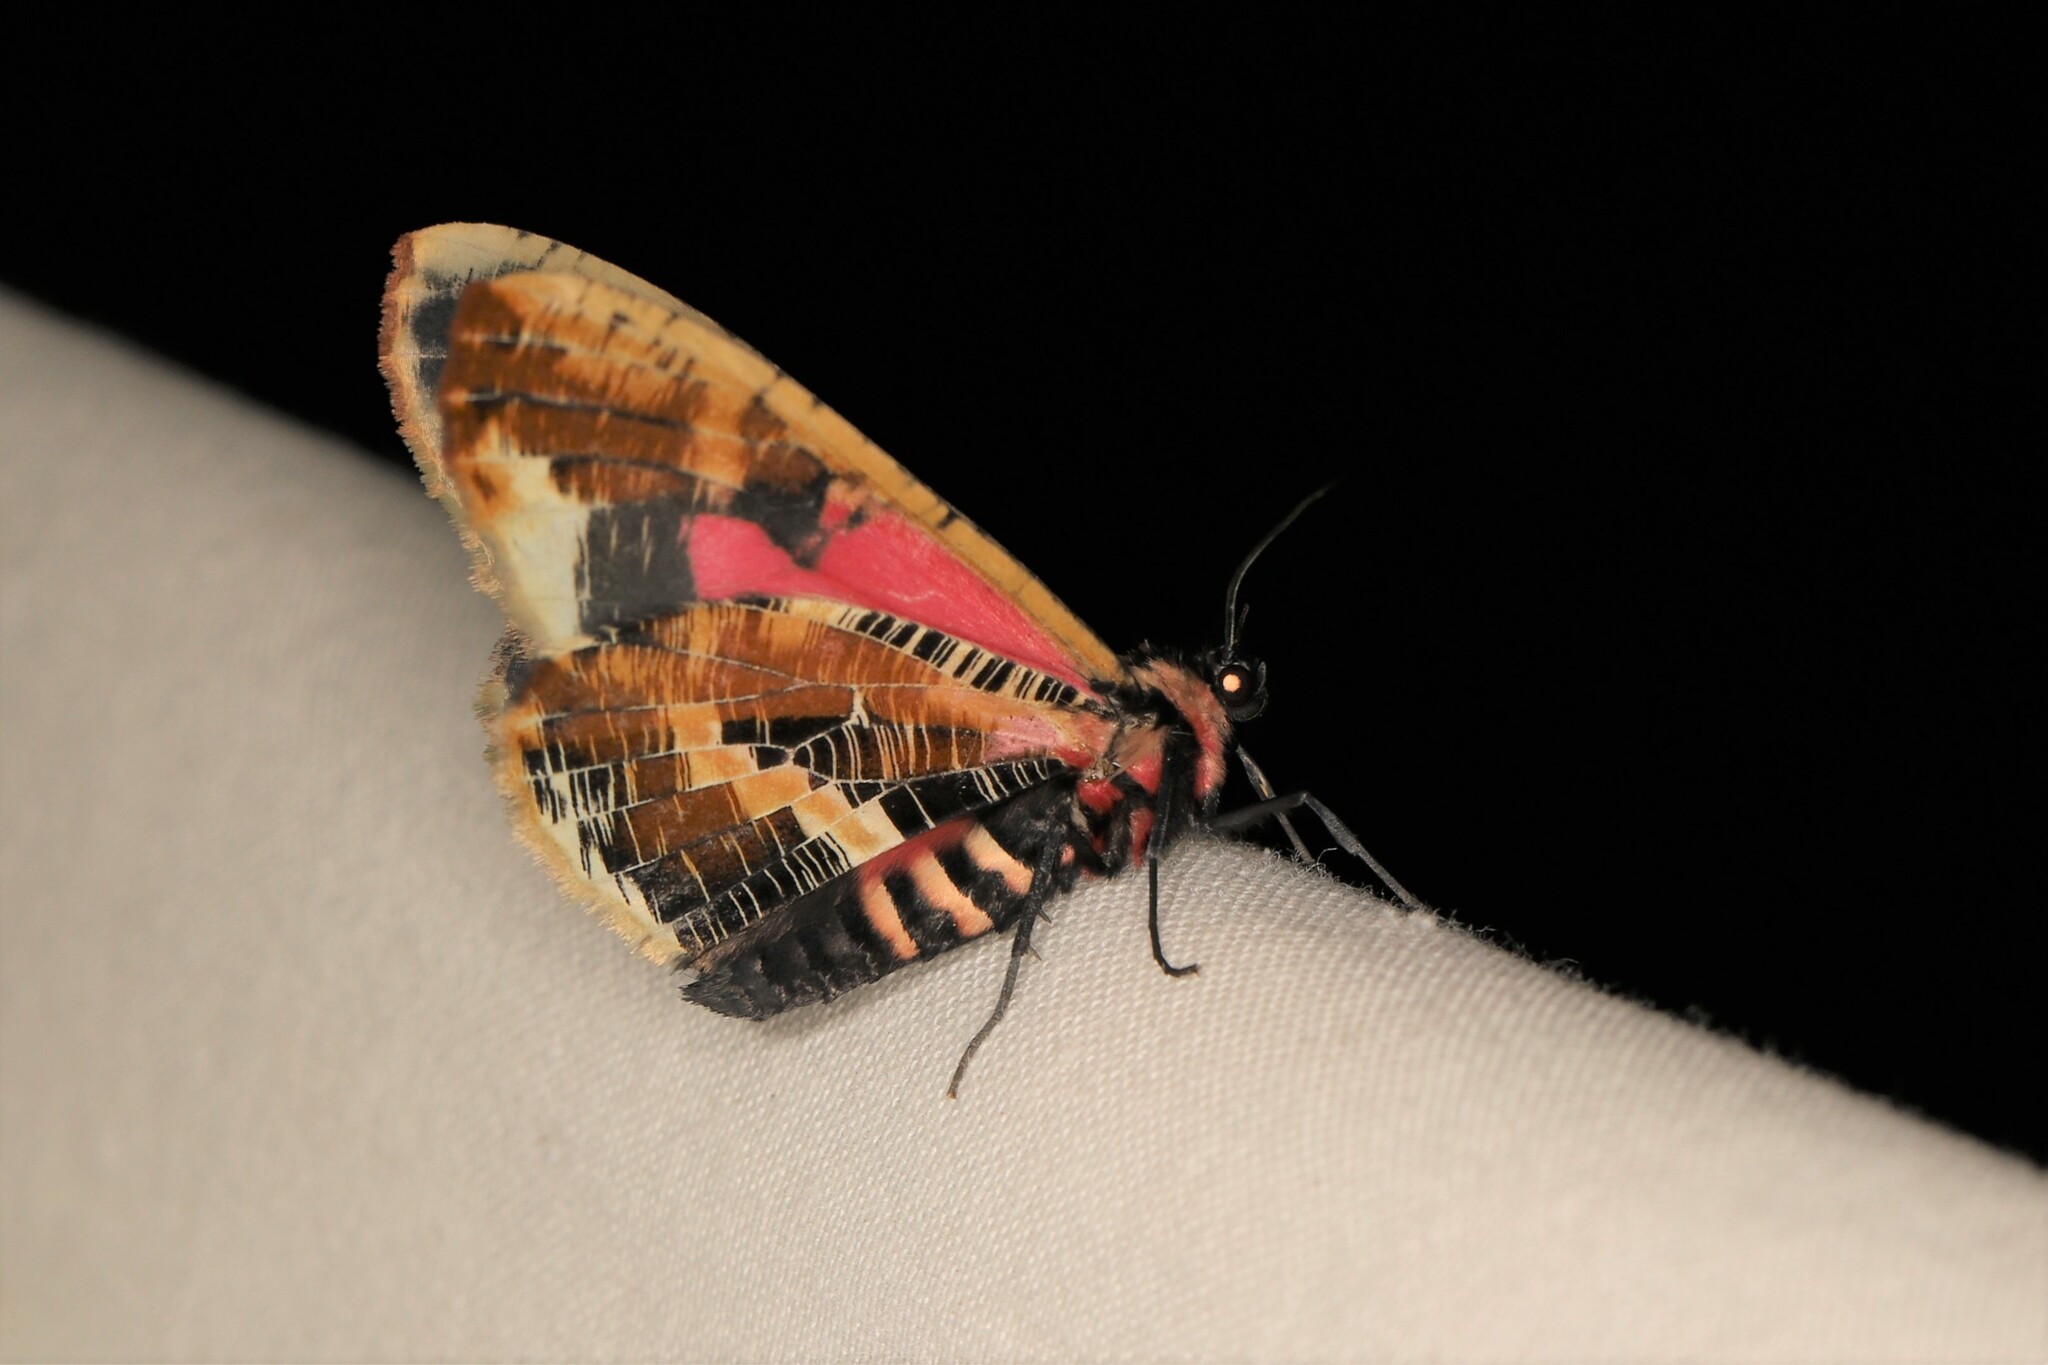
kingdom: Animalia
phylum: Arthropoda
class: Insecta
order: Lepidoptera
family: Geometridae
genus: Callipia
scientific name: Callipia milleri
